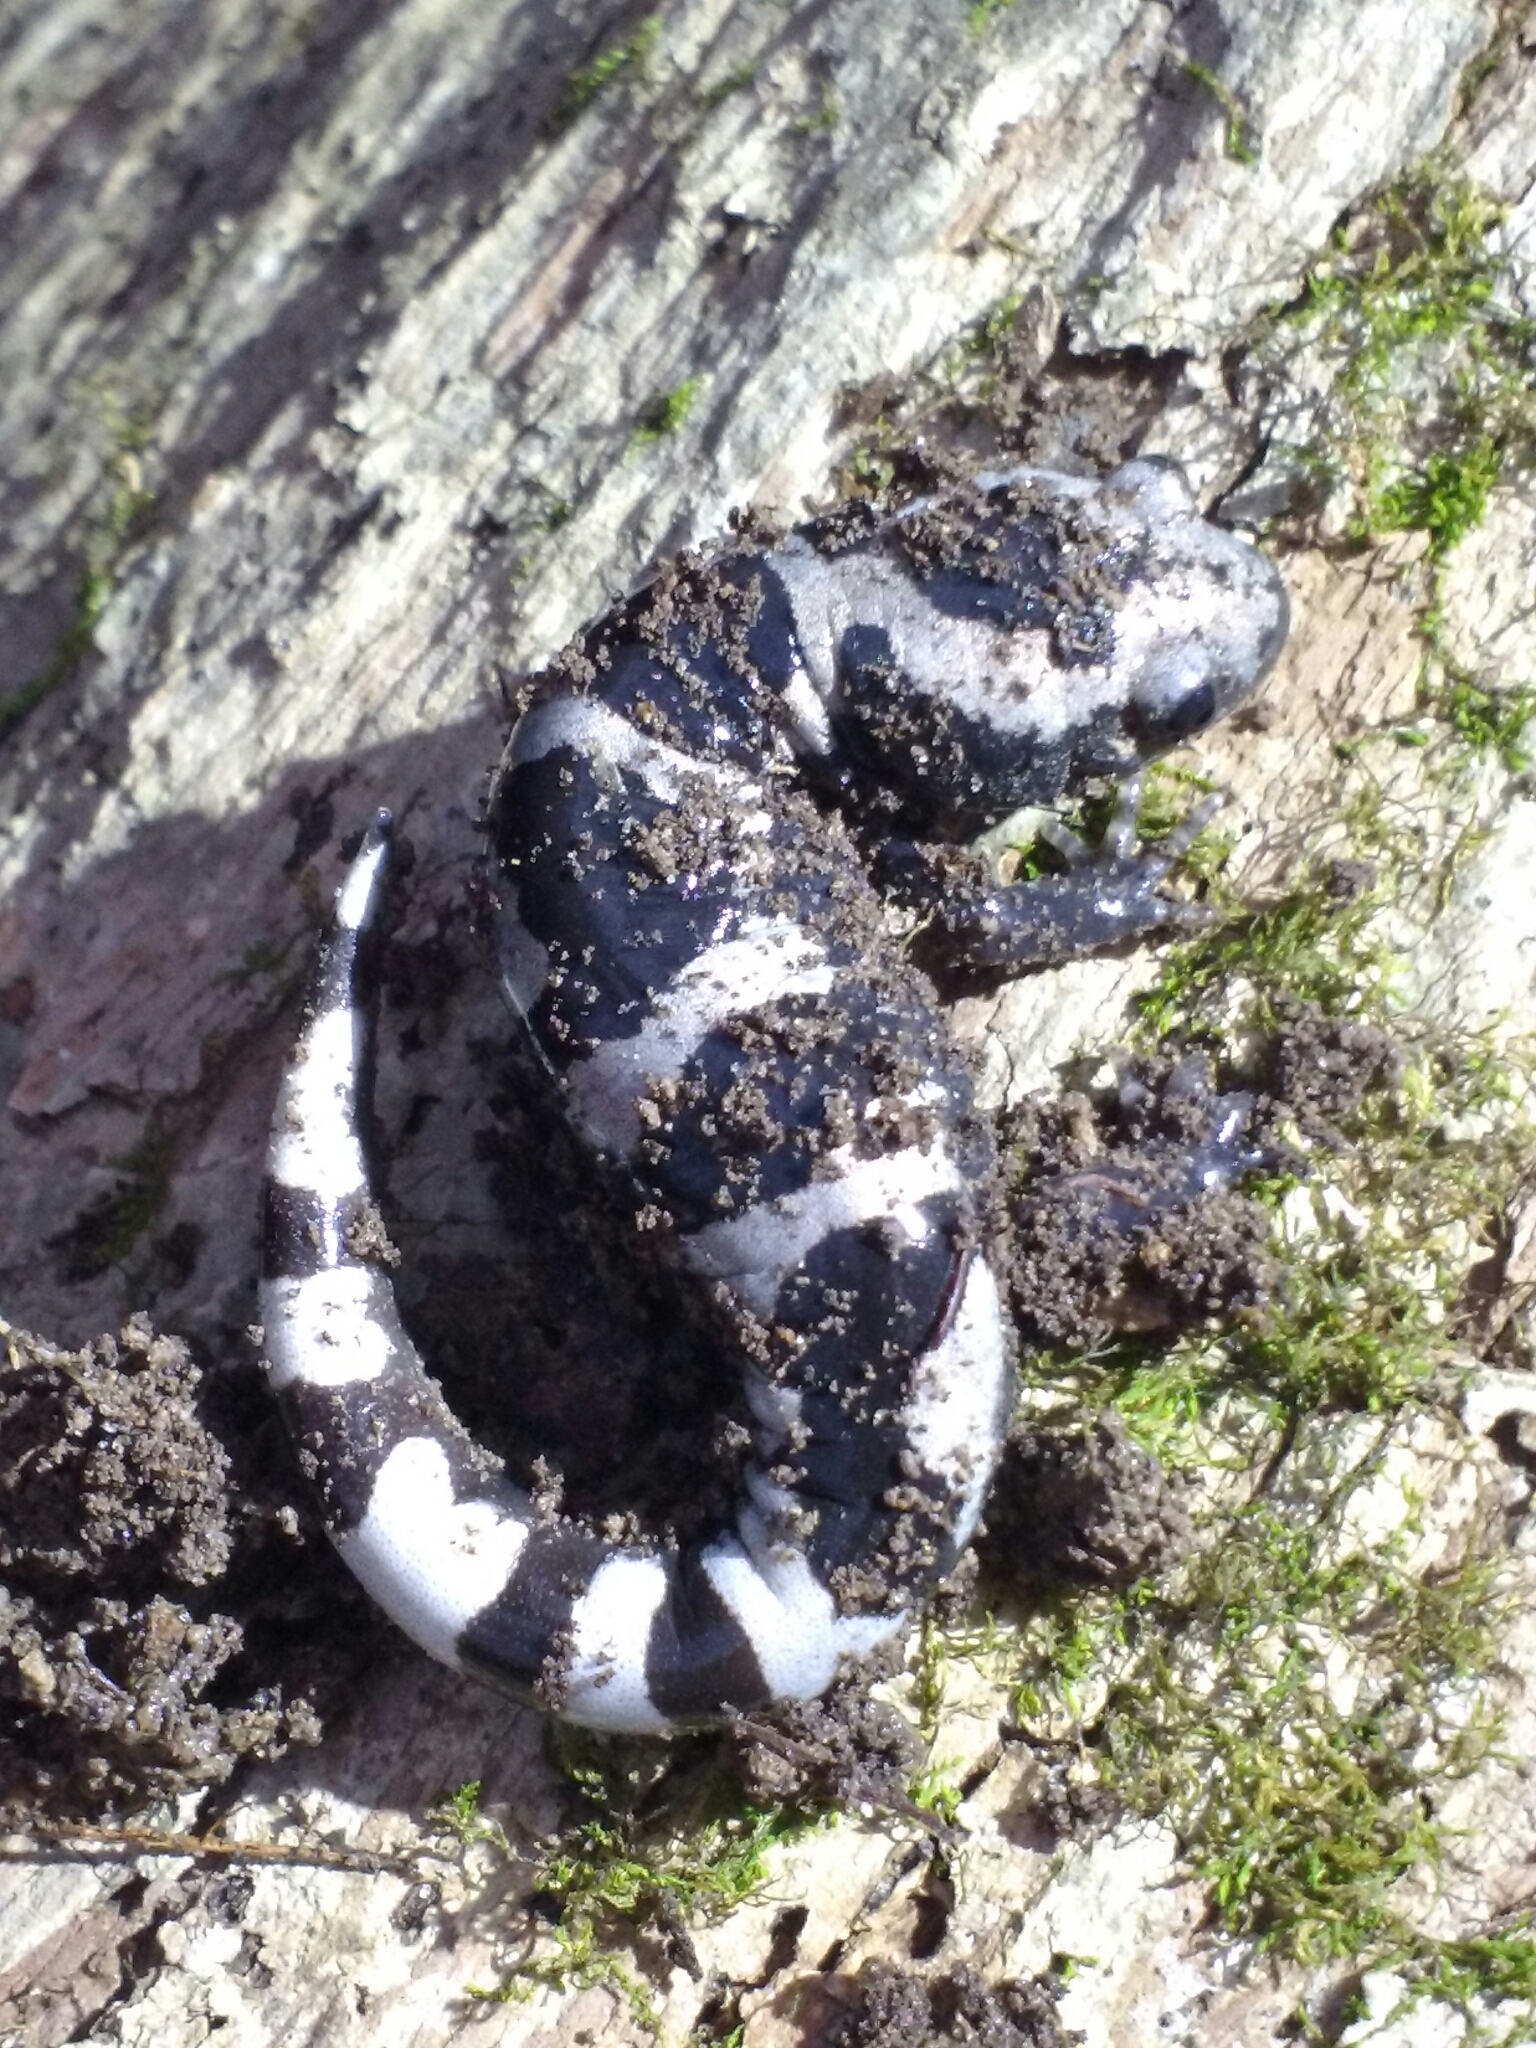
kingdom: Animalia
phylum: Chordata
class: Amphibia
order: Caudata
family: Ambystomatidae
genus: Ambystoma
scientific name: Ambystoma opacum
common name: Marbled salamander
